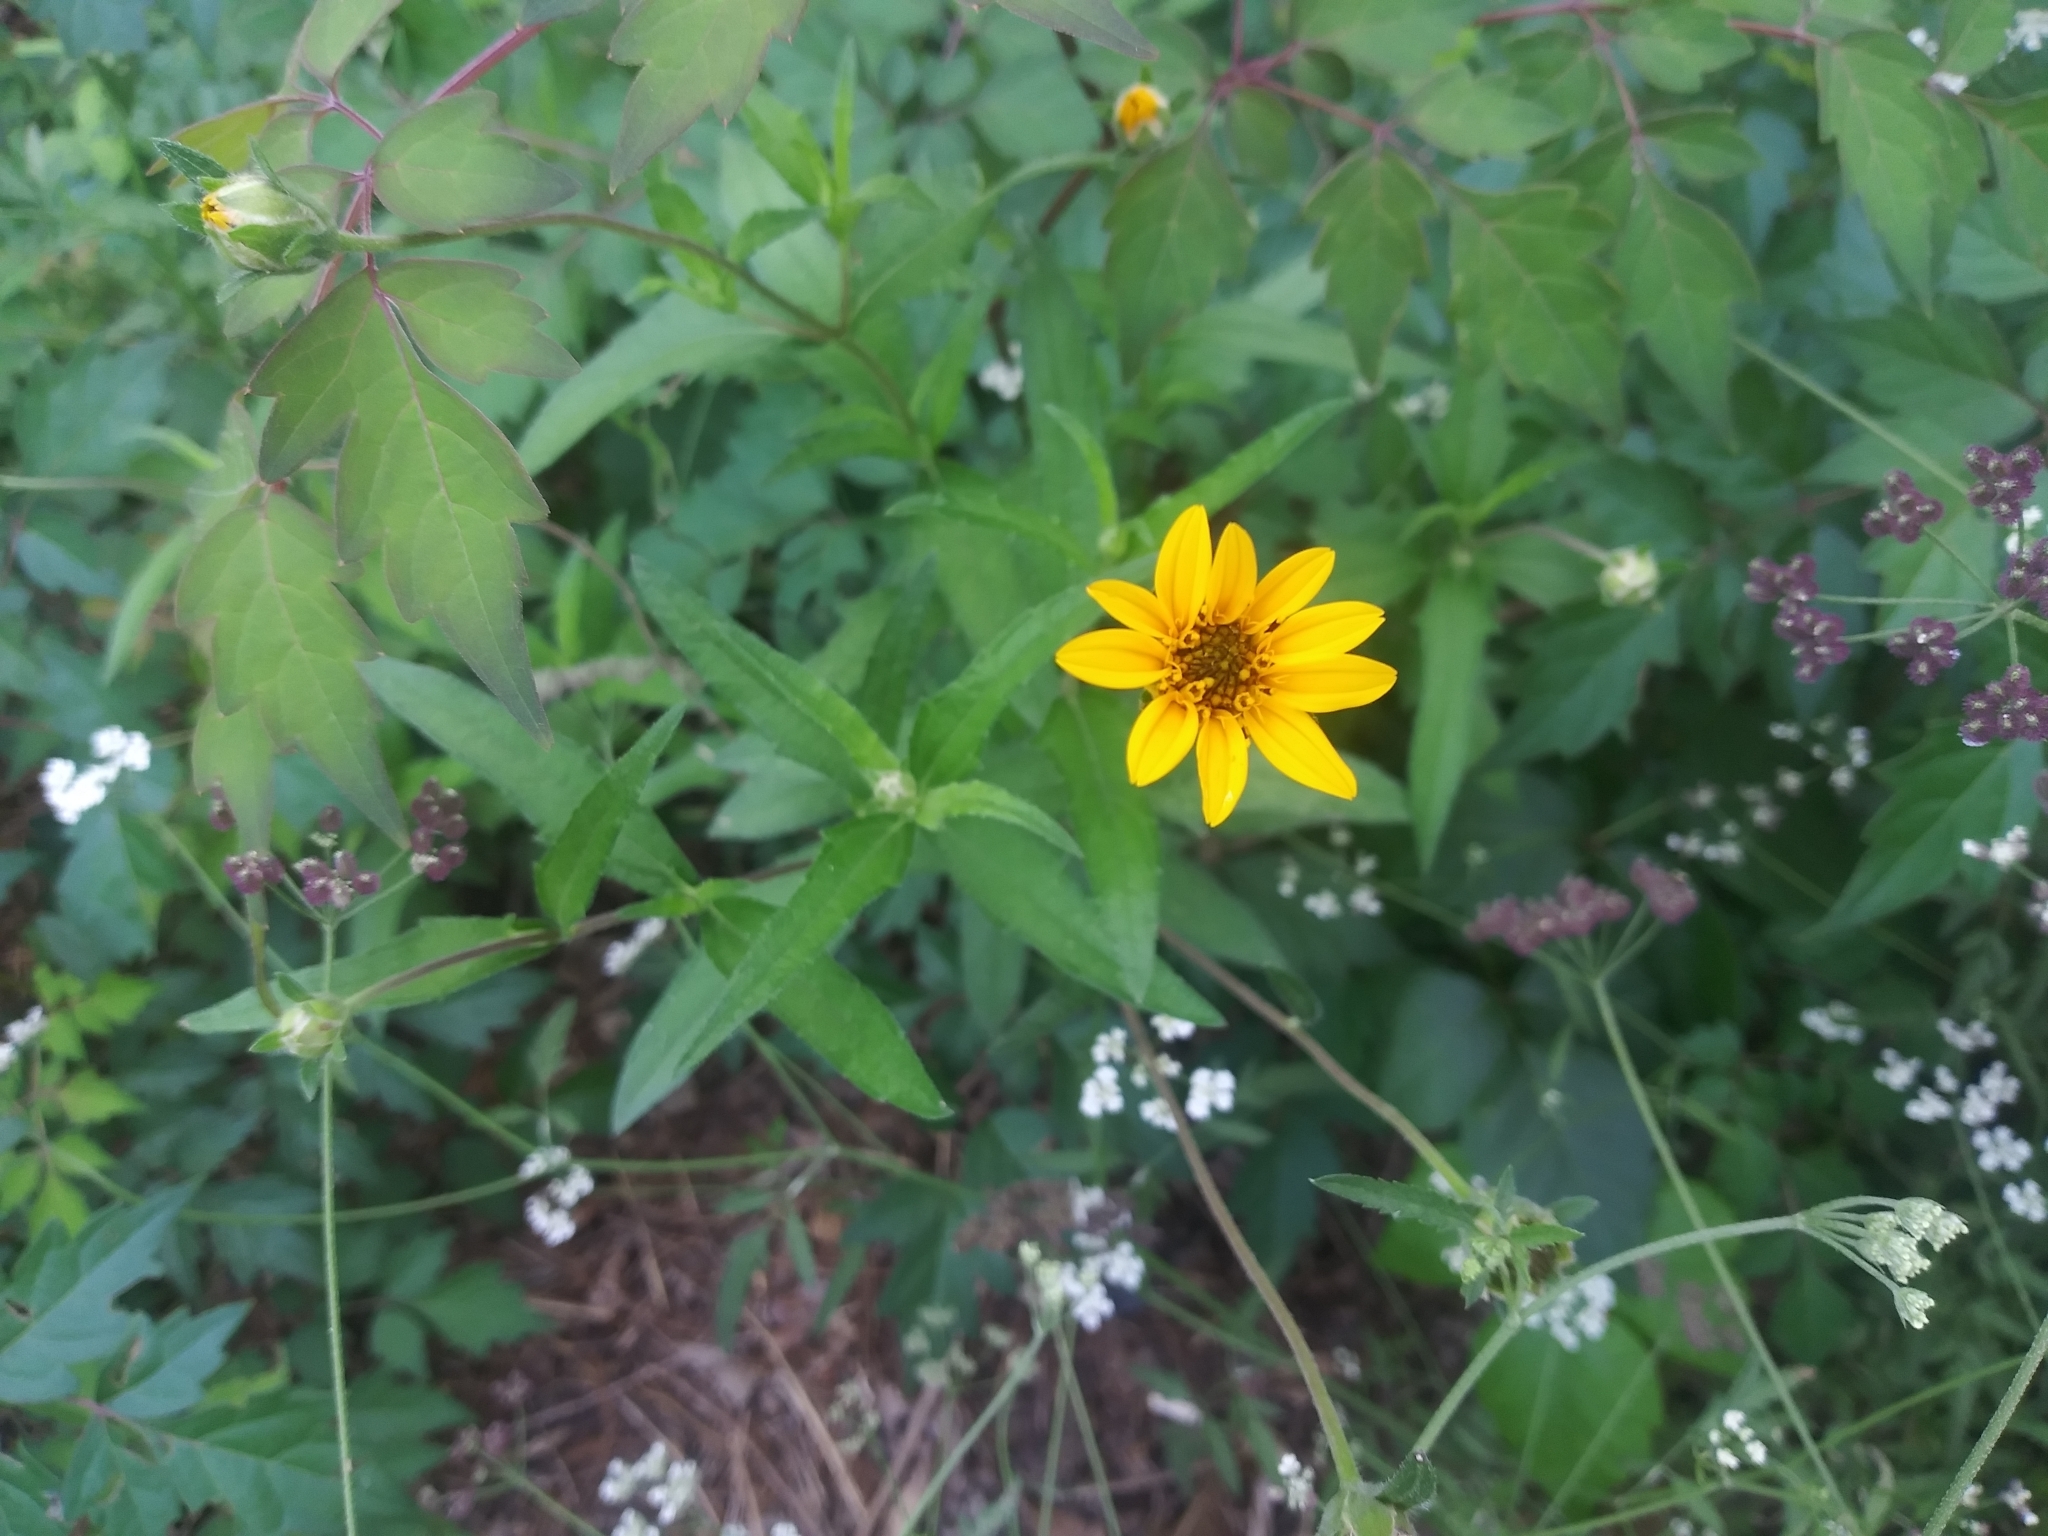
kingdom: Plantae
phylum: Tracheophyta
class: Magnoliopsida
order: Asterales
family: Asteraceae
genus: Wedelia
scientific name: Wedelia acapulcensis
